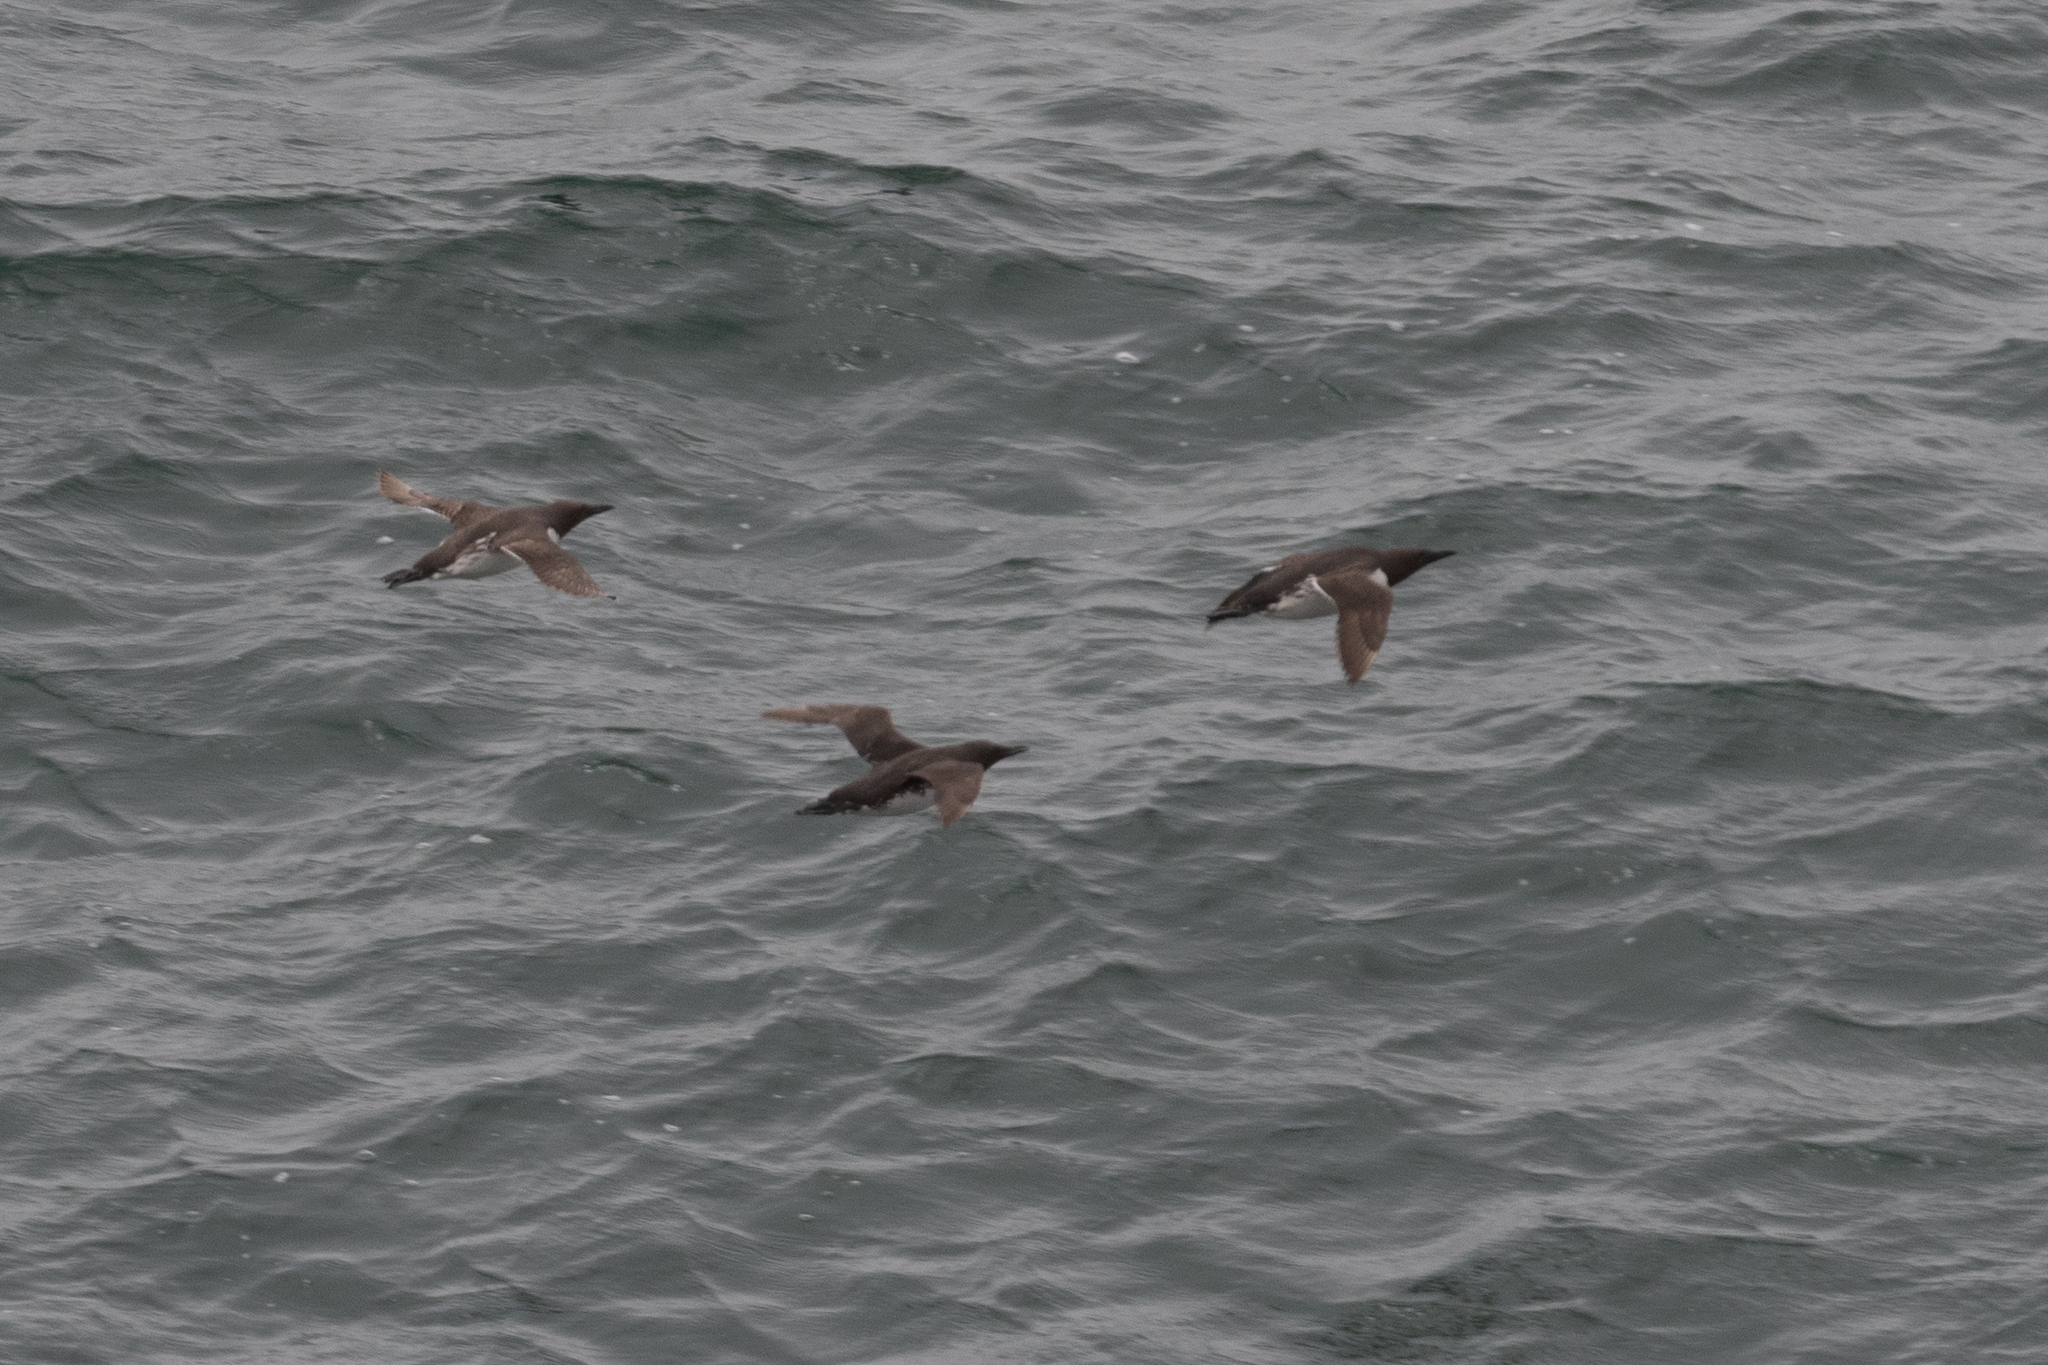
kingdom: Animalia
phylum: Chordata
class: Aves
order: Charadriiformes
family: Alcidae
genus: Uria
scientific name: Uria aalge
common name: Common murre
